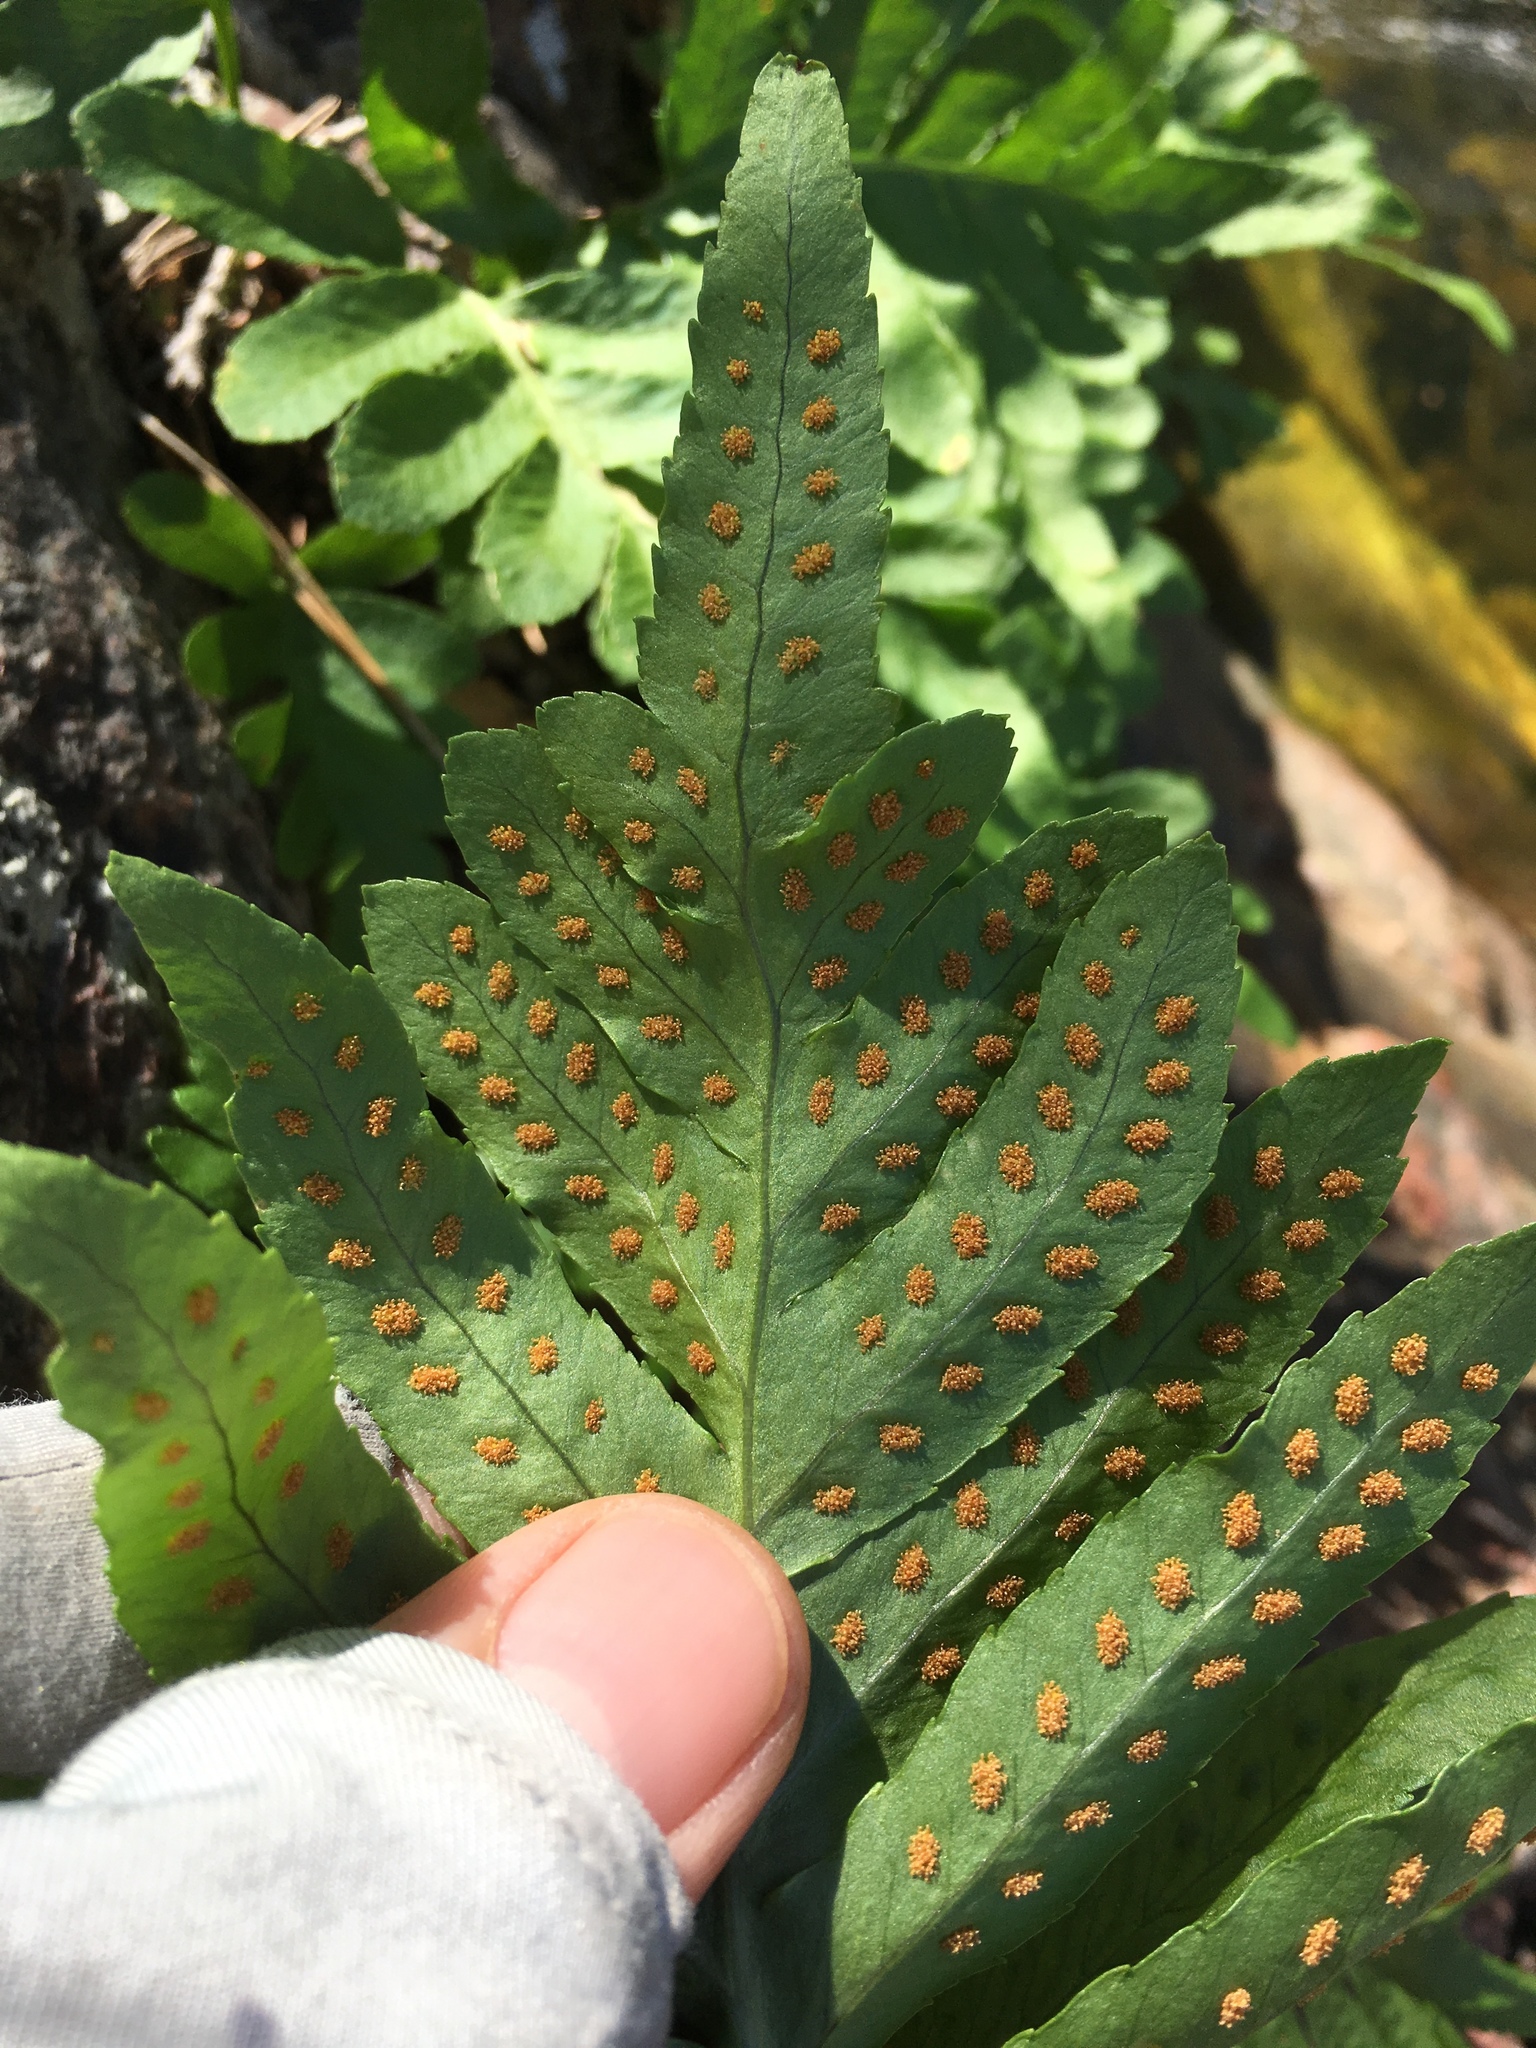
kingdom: Plantae
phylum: Tracheophyta
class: Polypodiopsida
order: Polypodiales
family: Polypodiaceae
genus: Polypodium
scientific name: Polypodium californicum
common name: California polypody
